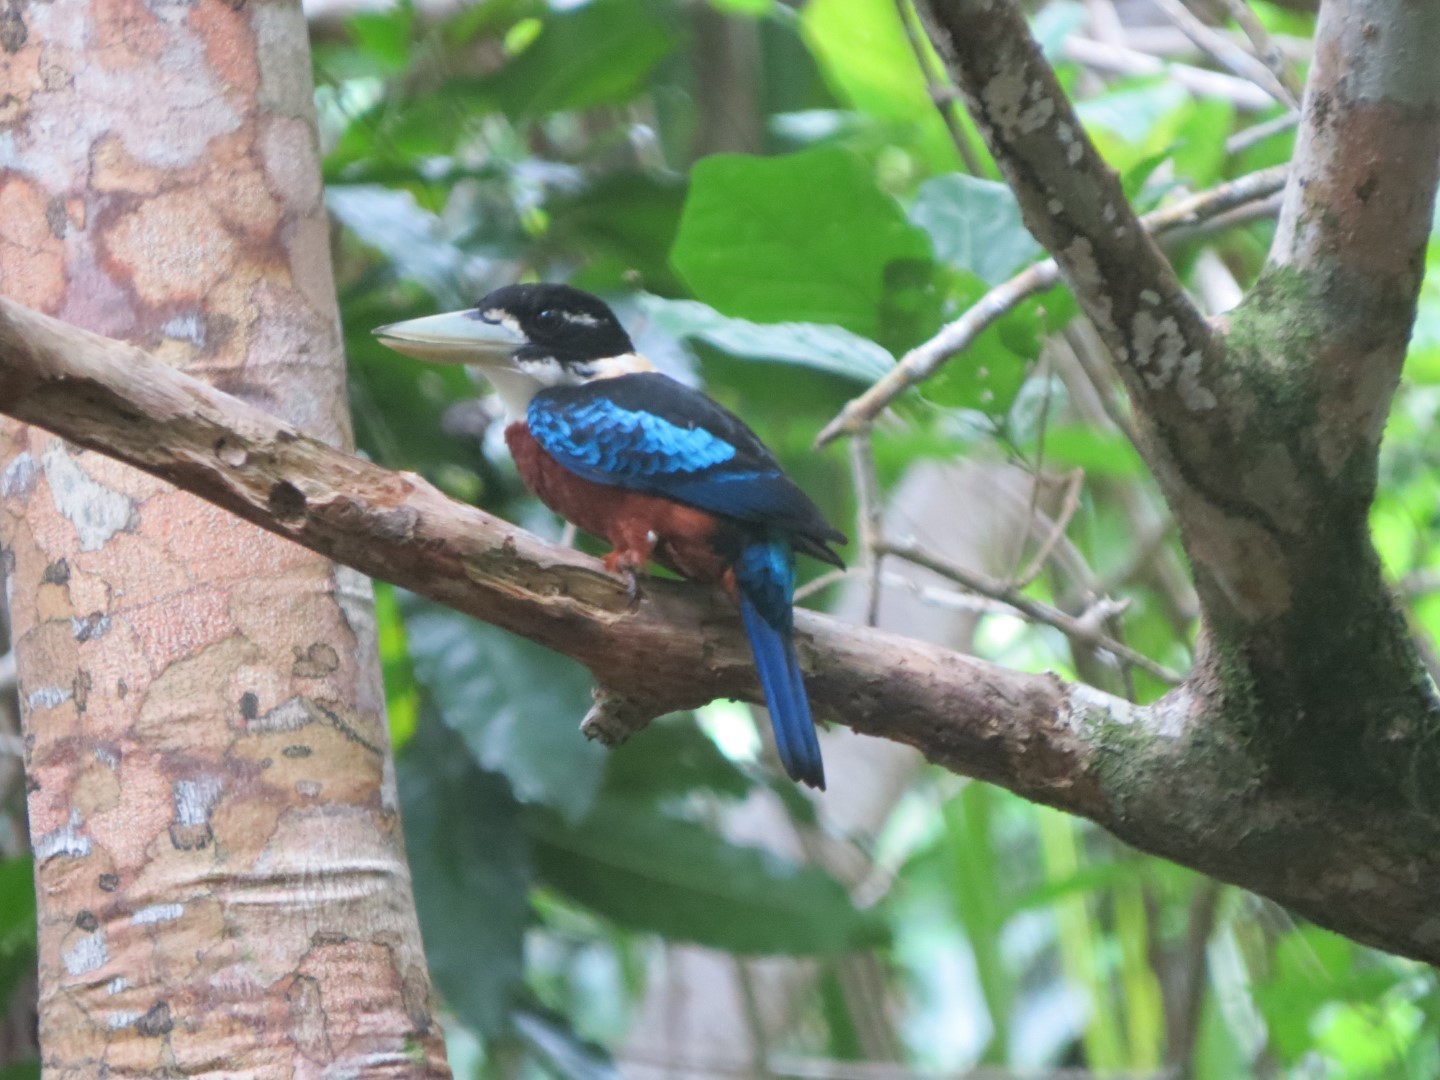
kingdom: Animalia
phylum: Chordata
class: Aves
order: Coraciiformes
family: Alcedinidae
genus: Dacelo
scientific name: Dacelo gaudichaud
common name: Rufous-bellied kookaburra
